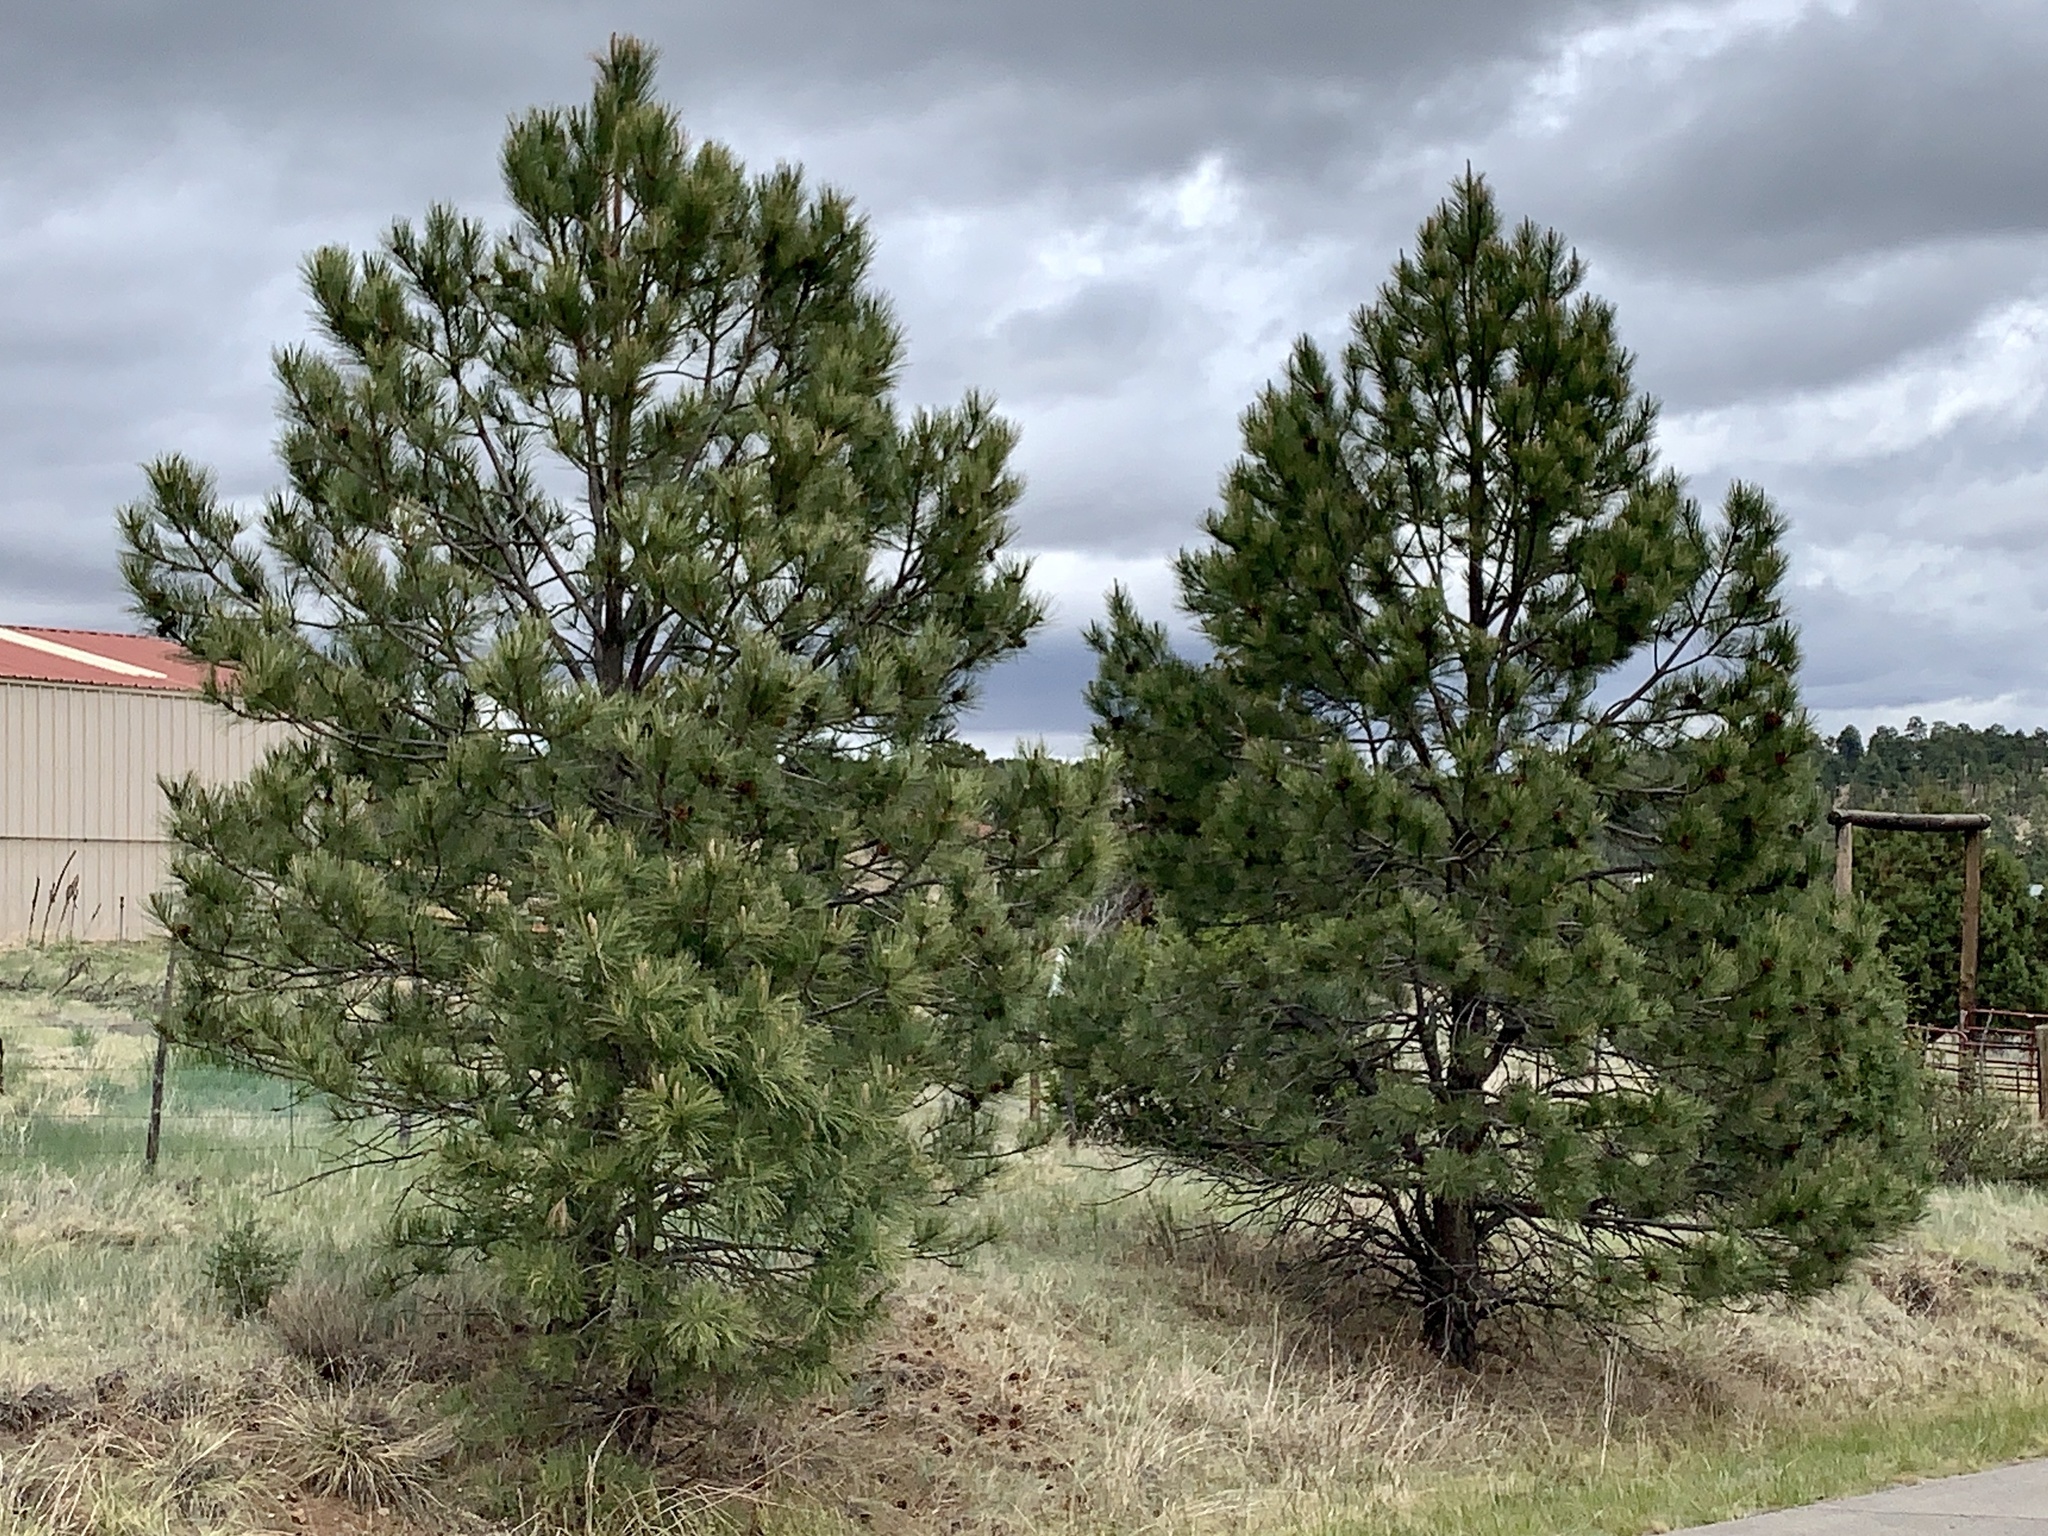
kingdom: Plantae
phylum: Tracheophyta
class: Pinopsida
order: Pinales
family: Pinaceae
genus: Pinus
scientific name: Pinus ponderosa
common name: Western yellow-pine
